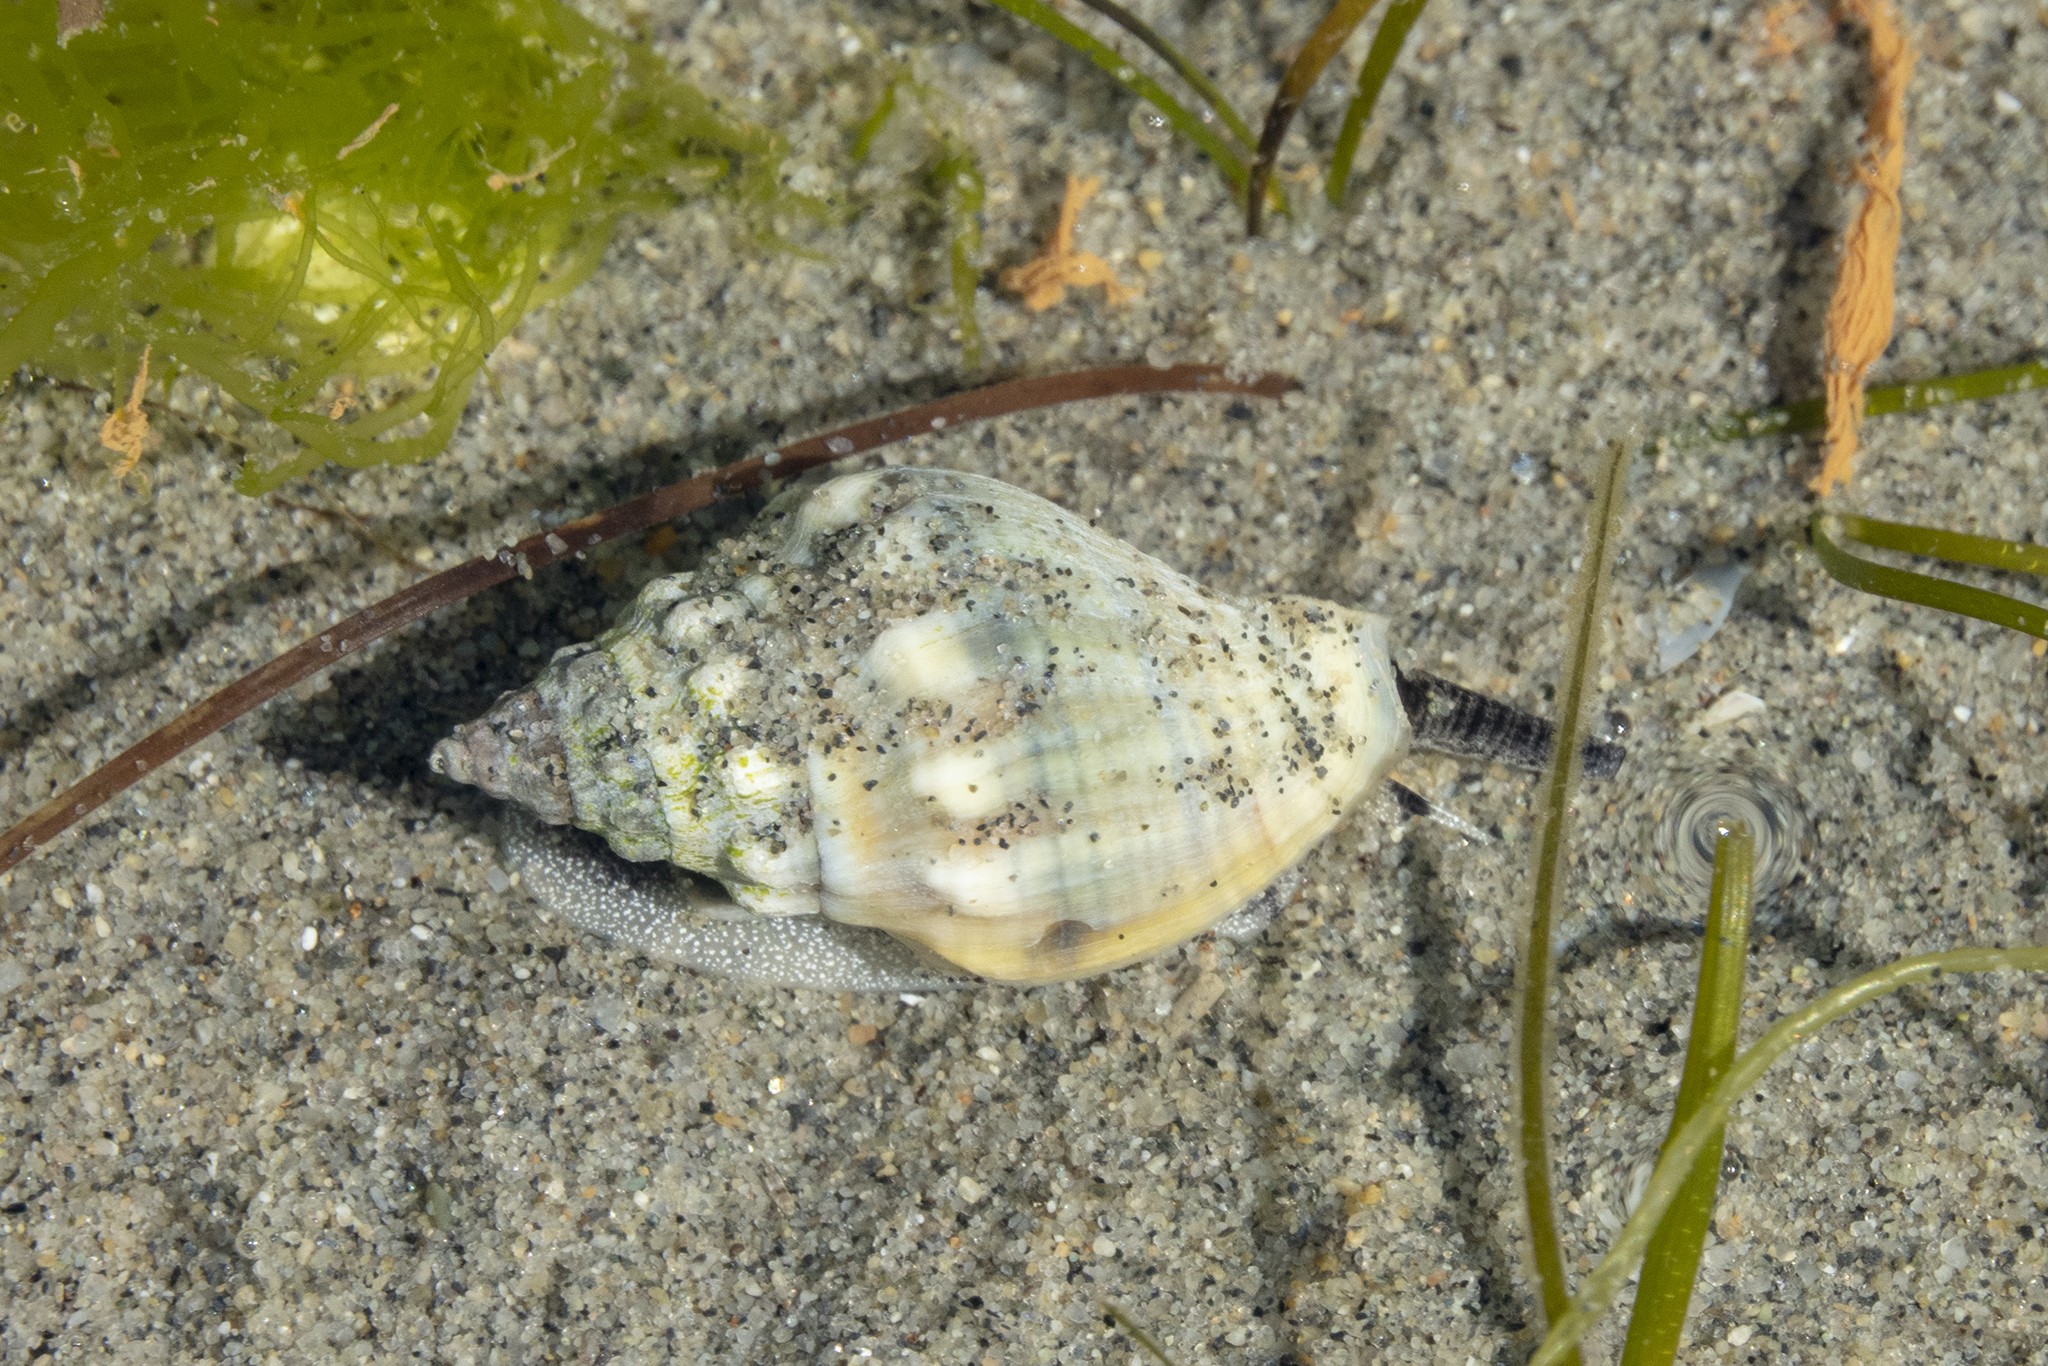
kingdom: Animalia
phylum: Mollusca
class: Gastropoda
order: Neogastropoda
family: Cominellidae
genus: Cominella
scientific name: Cominella glandiformis
